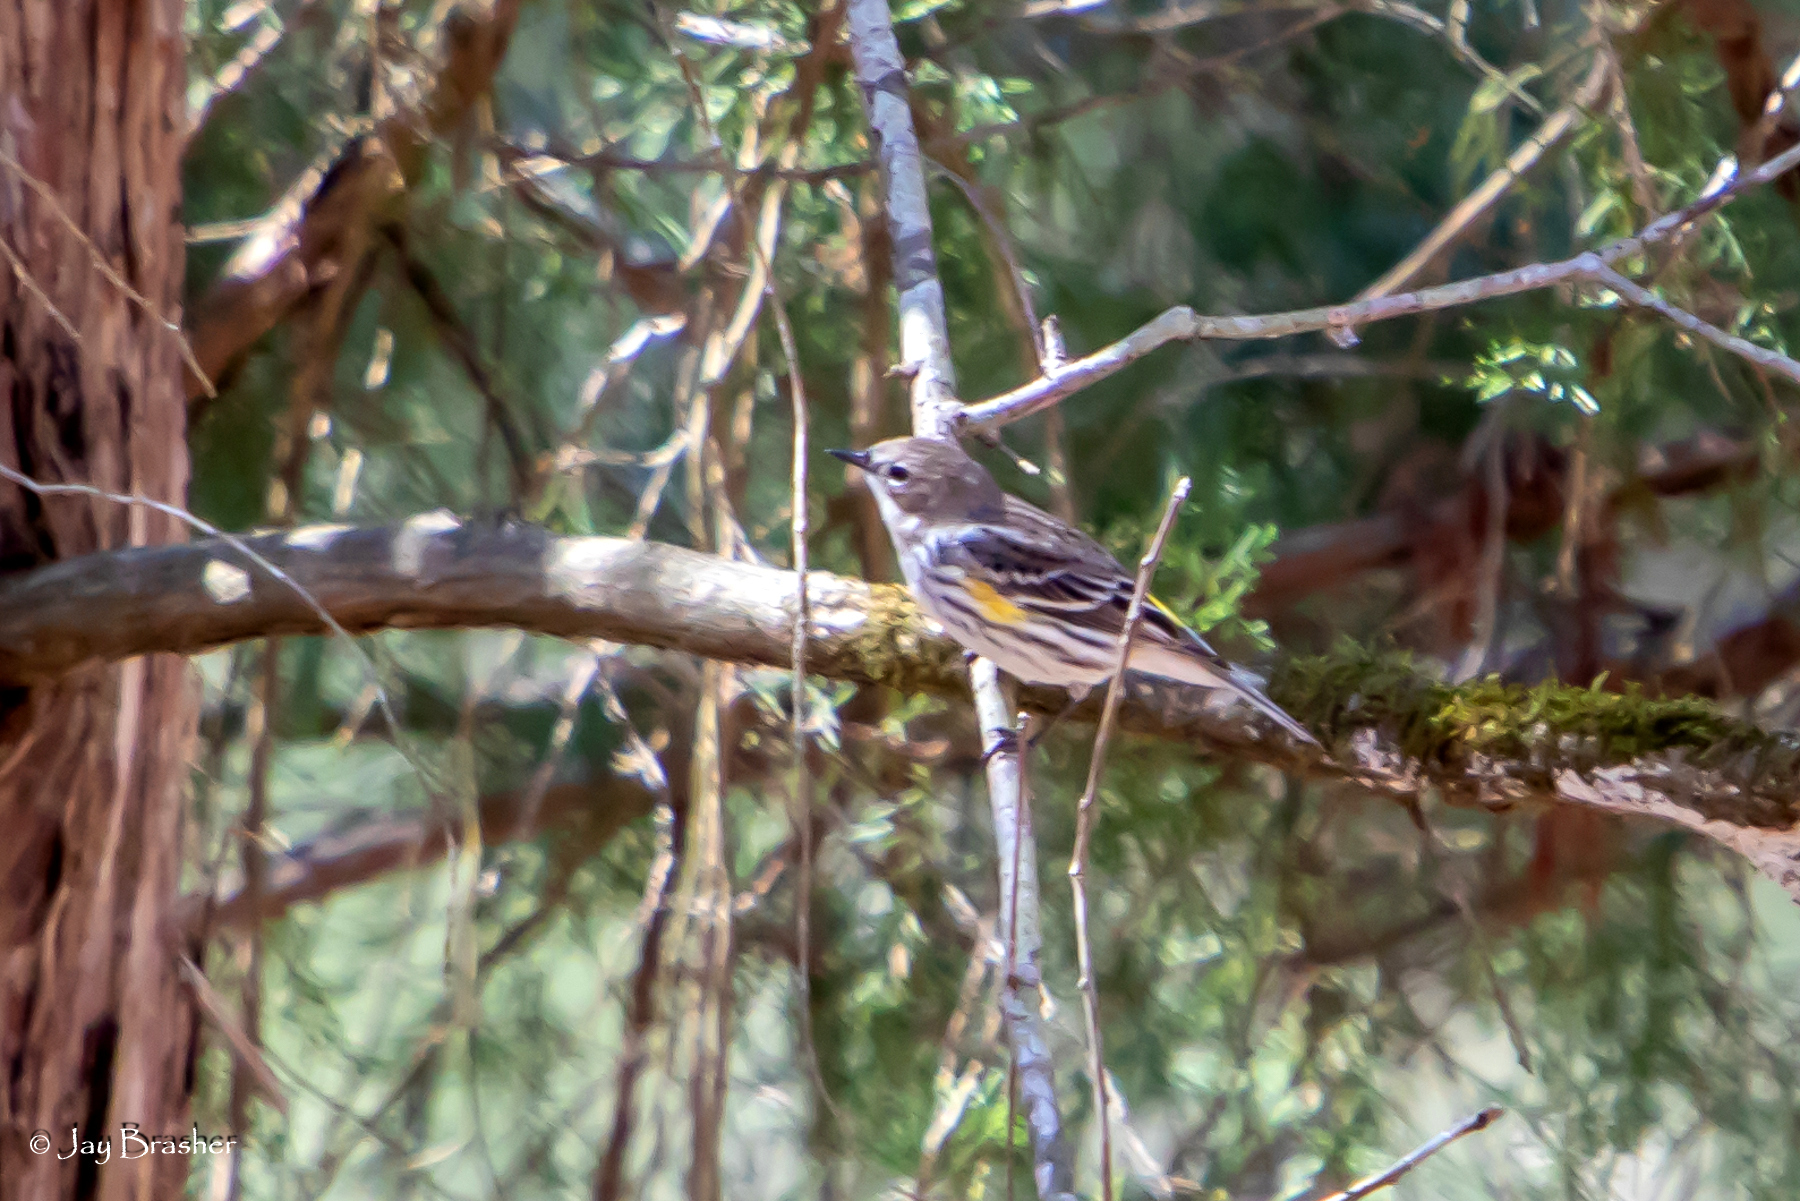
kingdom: Animalia
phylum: Chordata
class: Aves
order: Passeriformes
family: Parulidae
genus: Setophaga
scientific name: Setophaga coronata
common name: Myrtle warbler
